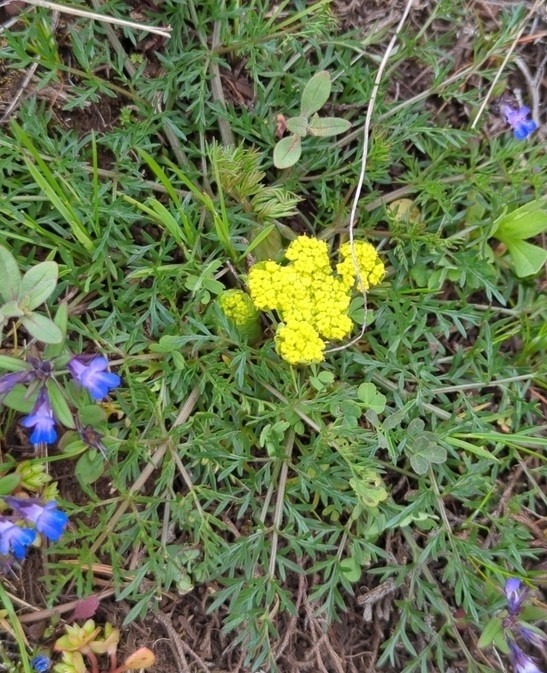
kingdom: Plantae
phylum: Tracheophyta
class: Magnoliopsida
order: Apiales
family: Apiaceae
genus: Lomatium
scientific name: Lomatium utriculatum
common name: Fine-leaf desert-parsley
